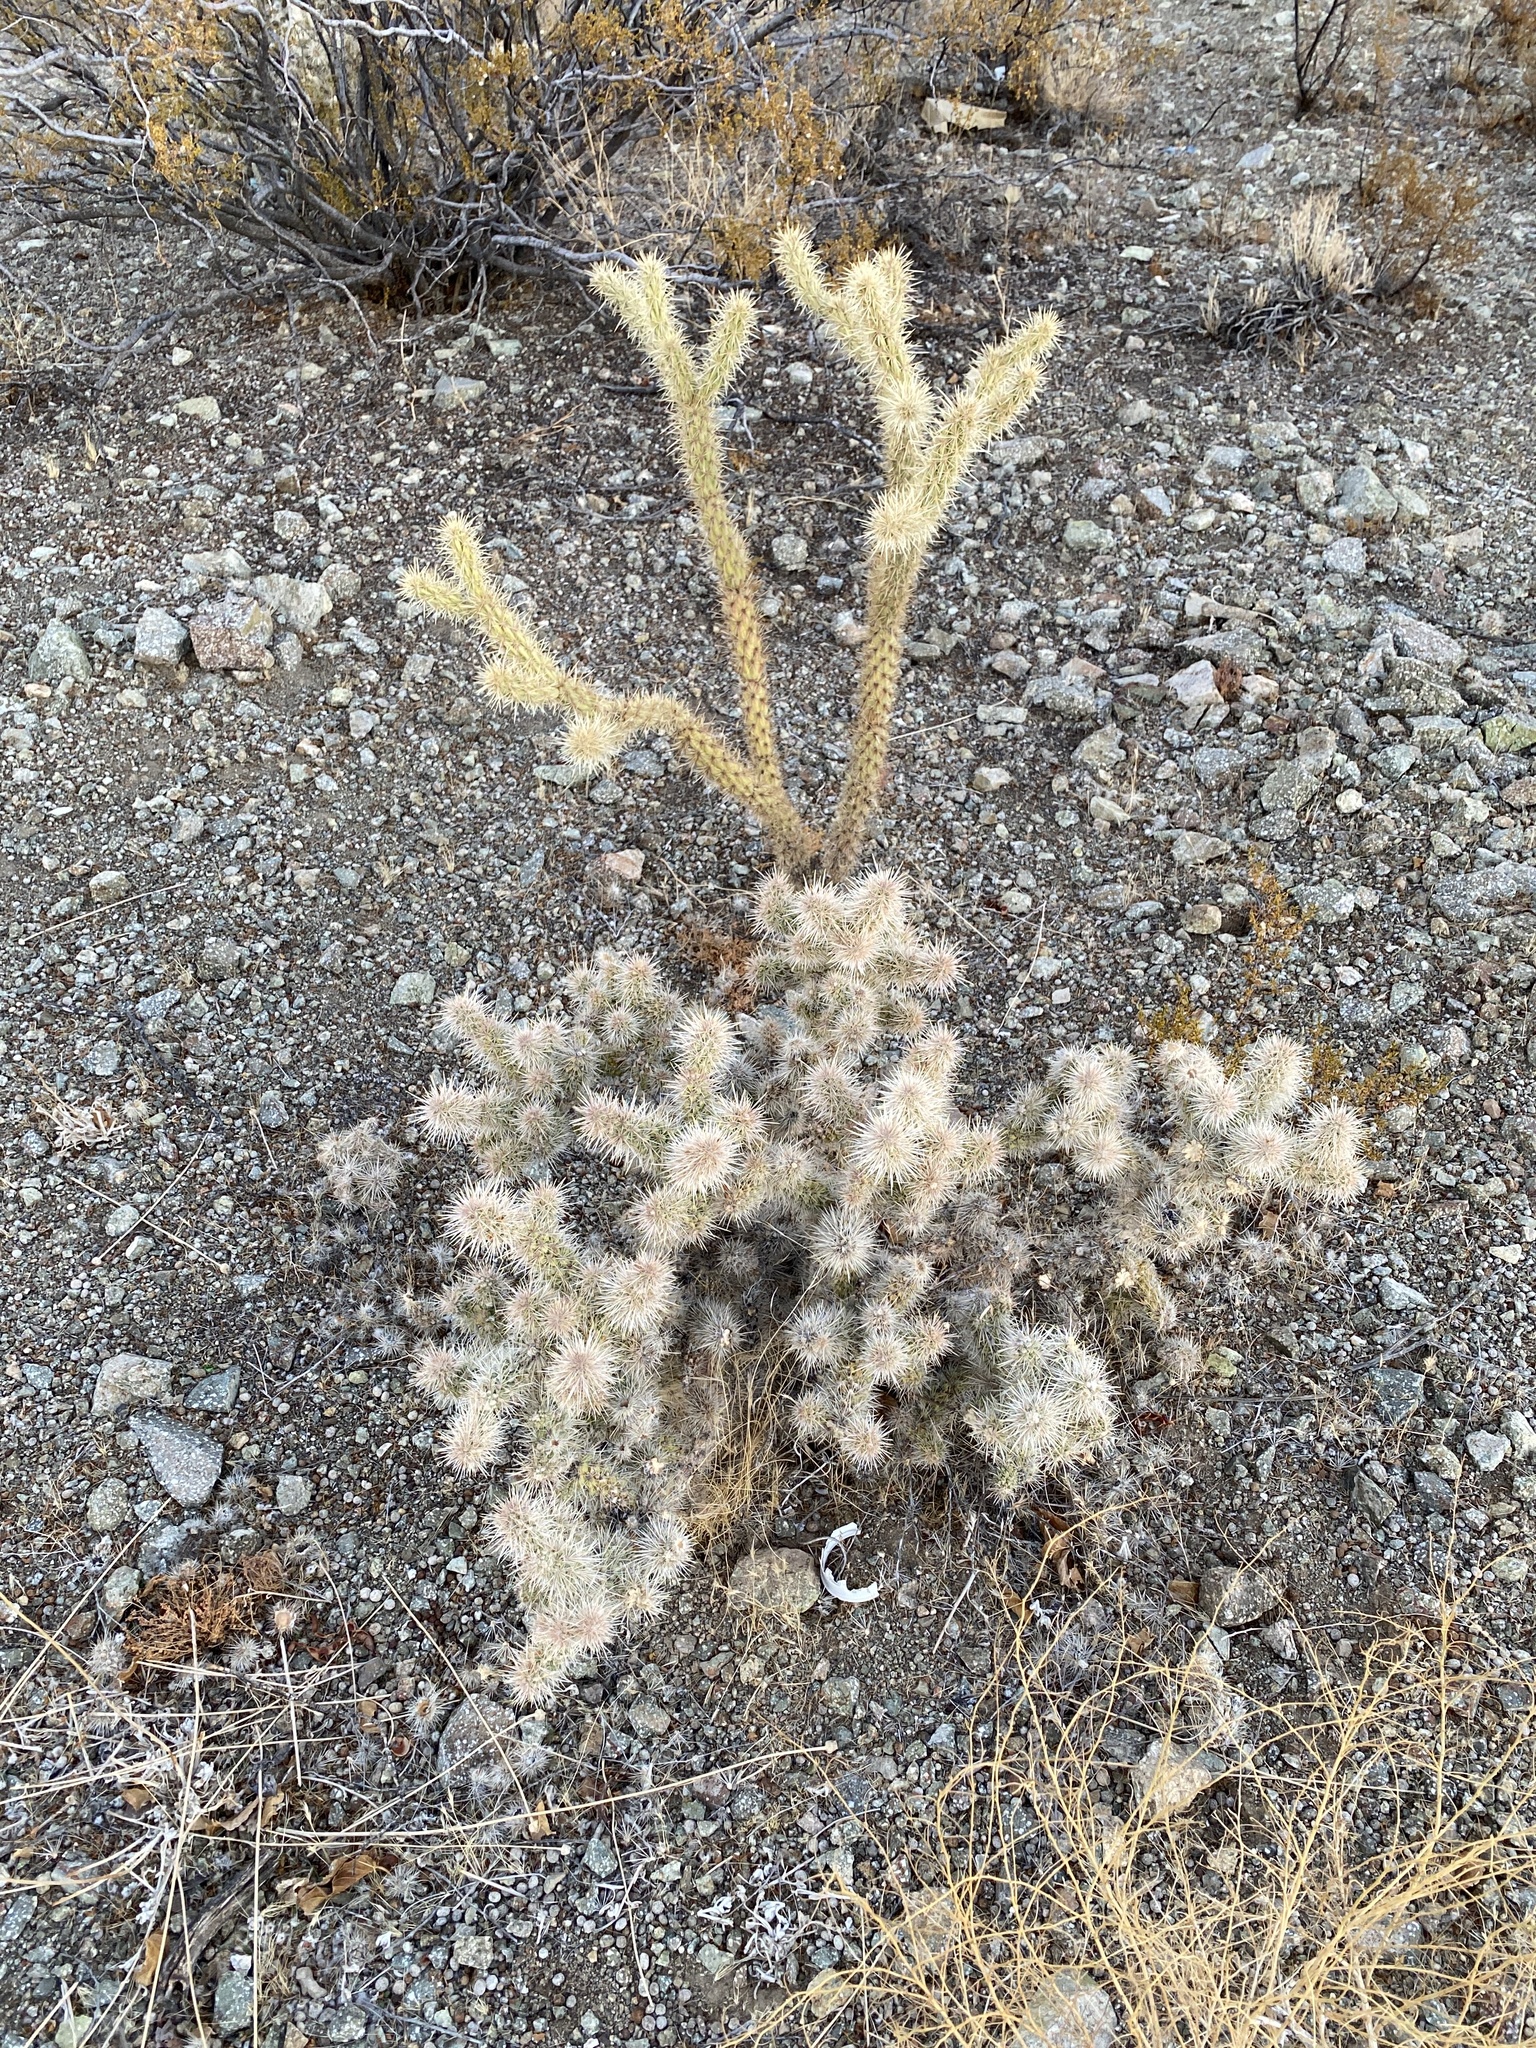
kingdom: Plantae
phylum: Tracheophyta
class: Magnoliopsida
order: Caryophyllales
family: Cactaceae
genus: Cylindropuntia
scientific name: Cylindropuntia acanthocarpa
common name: Buckhorn cholla
